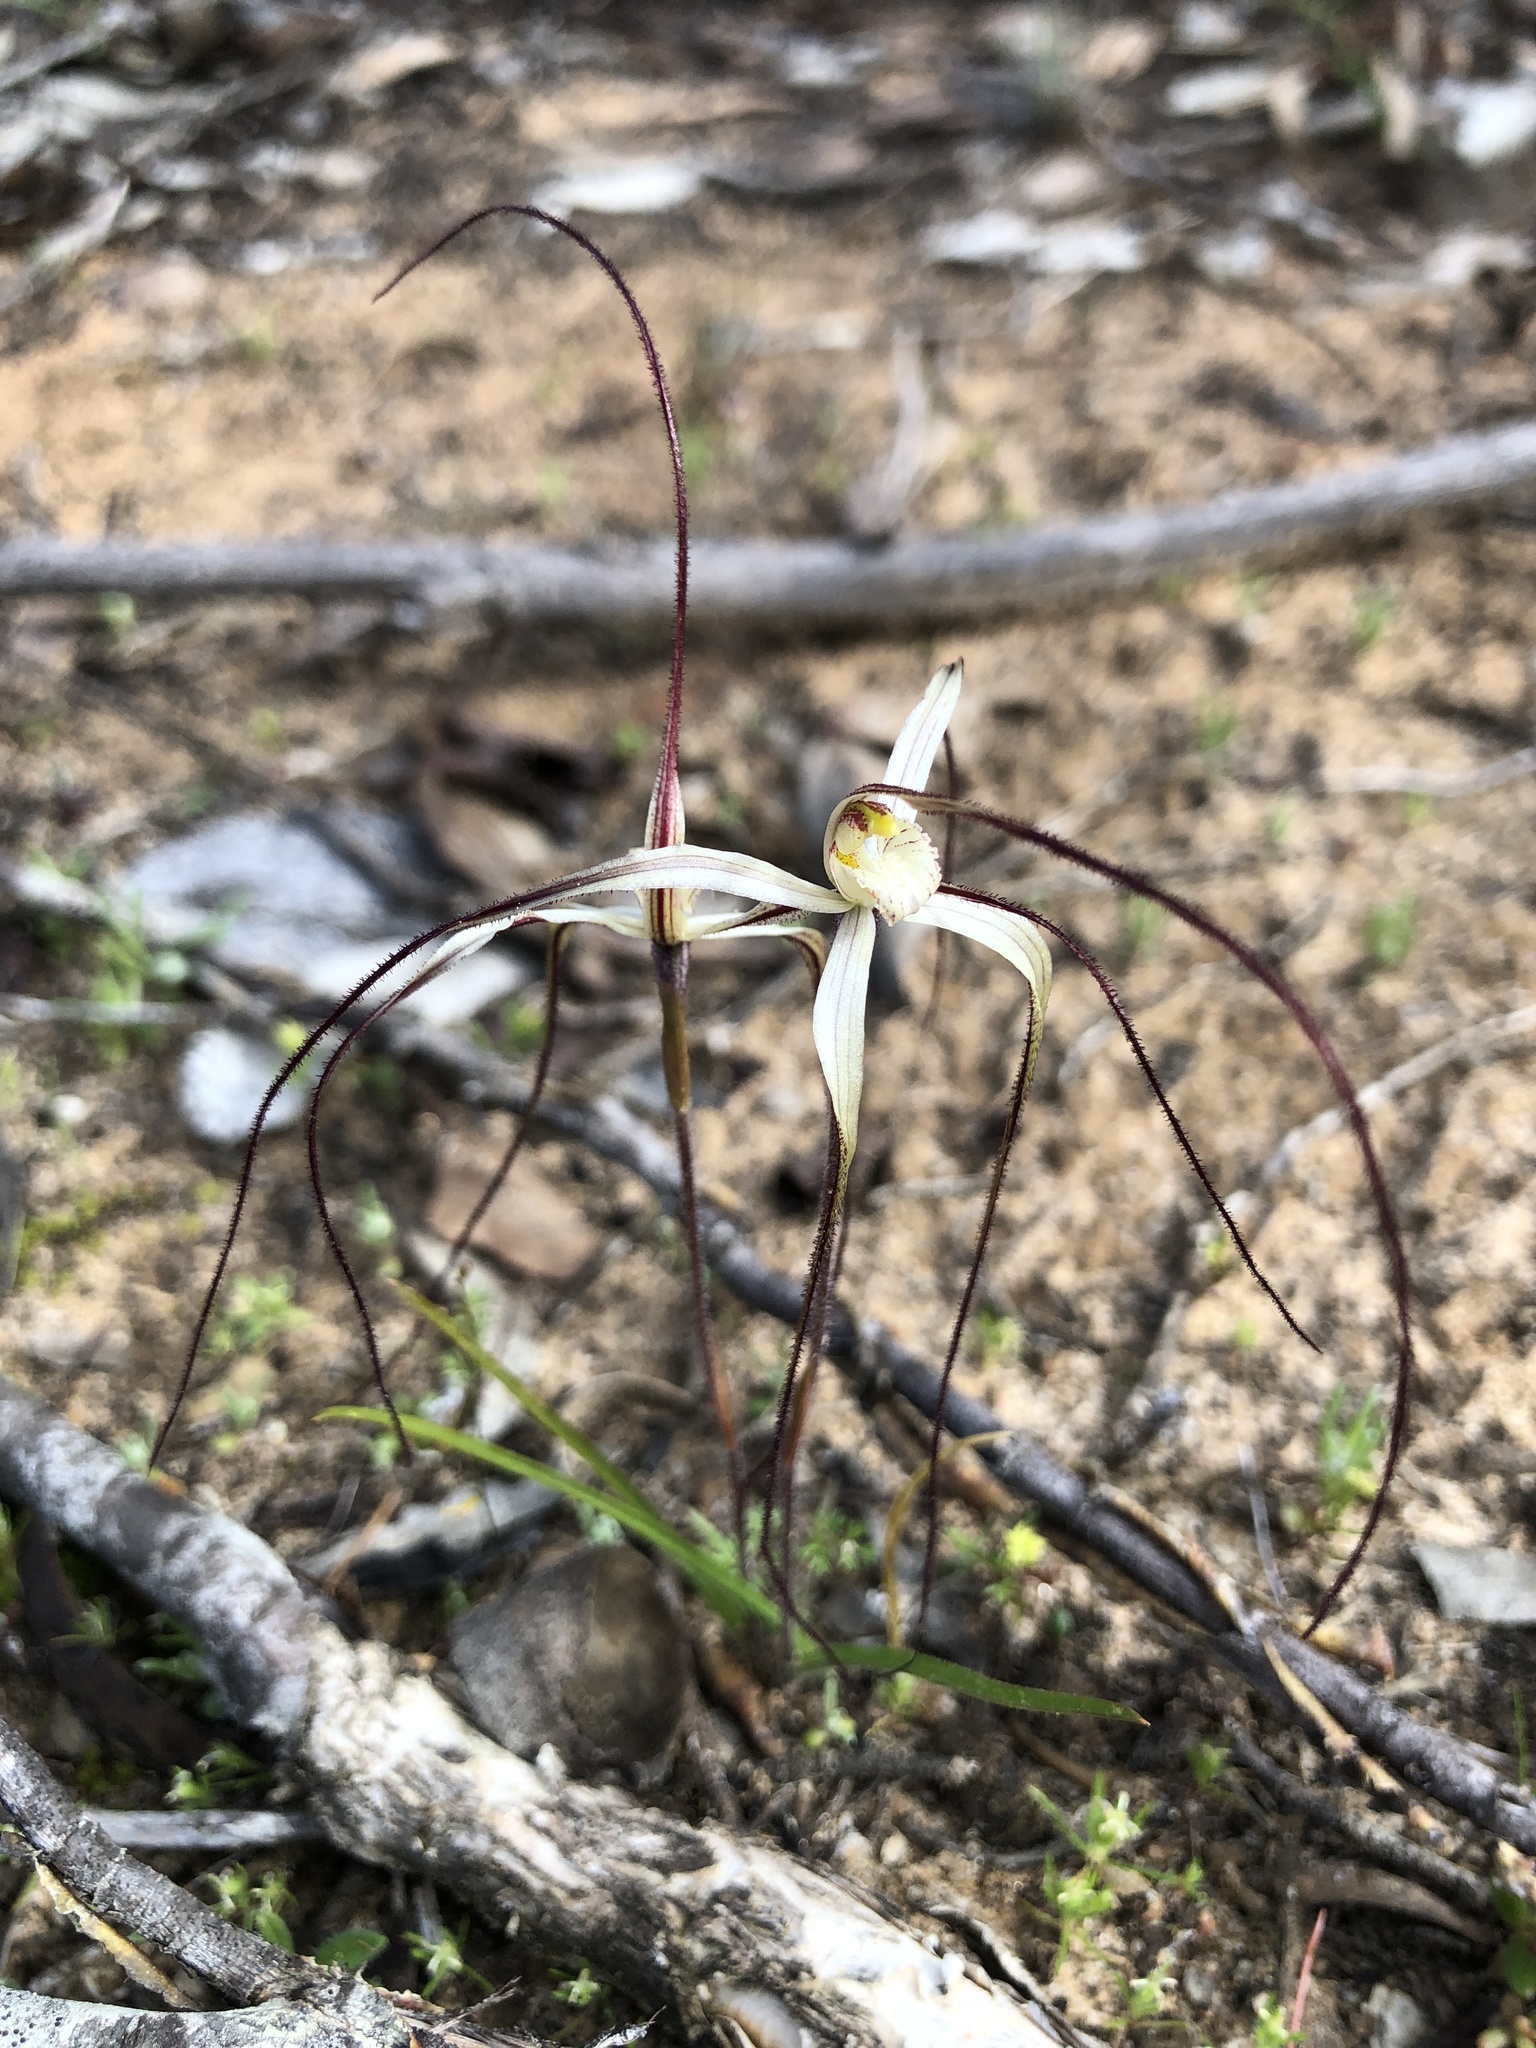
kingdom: Plantae
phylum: Tracheophyta
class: Liliopsida
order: Asparagales
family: Orchidaceae
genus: Caladenia
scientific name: Caladenia capillata
